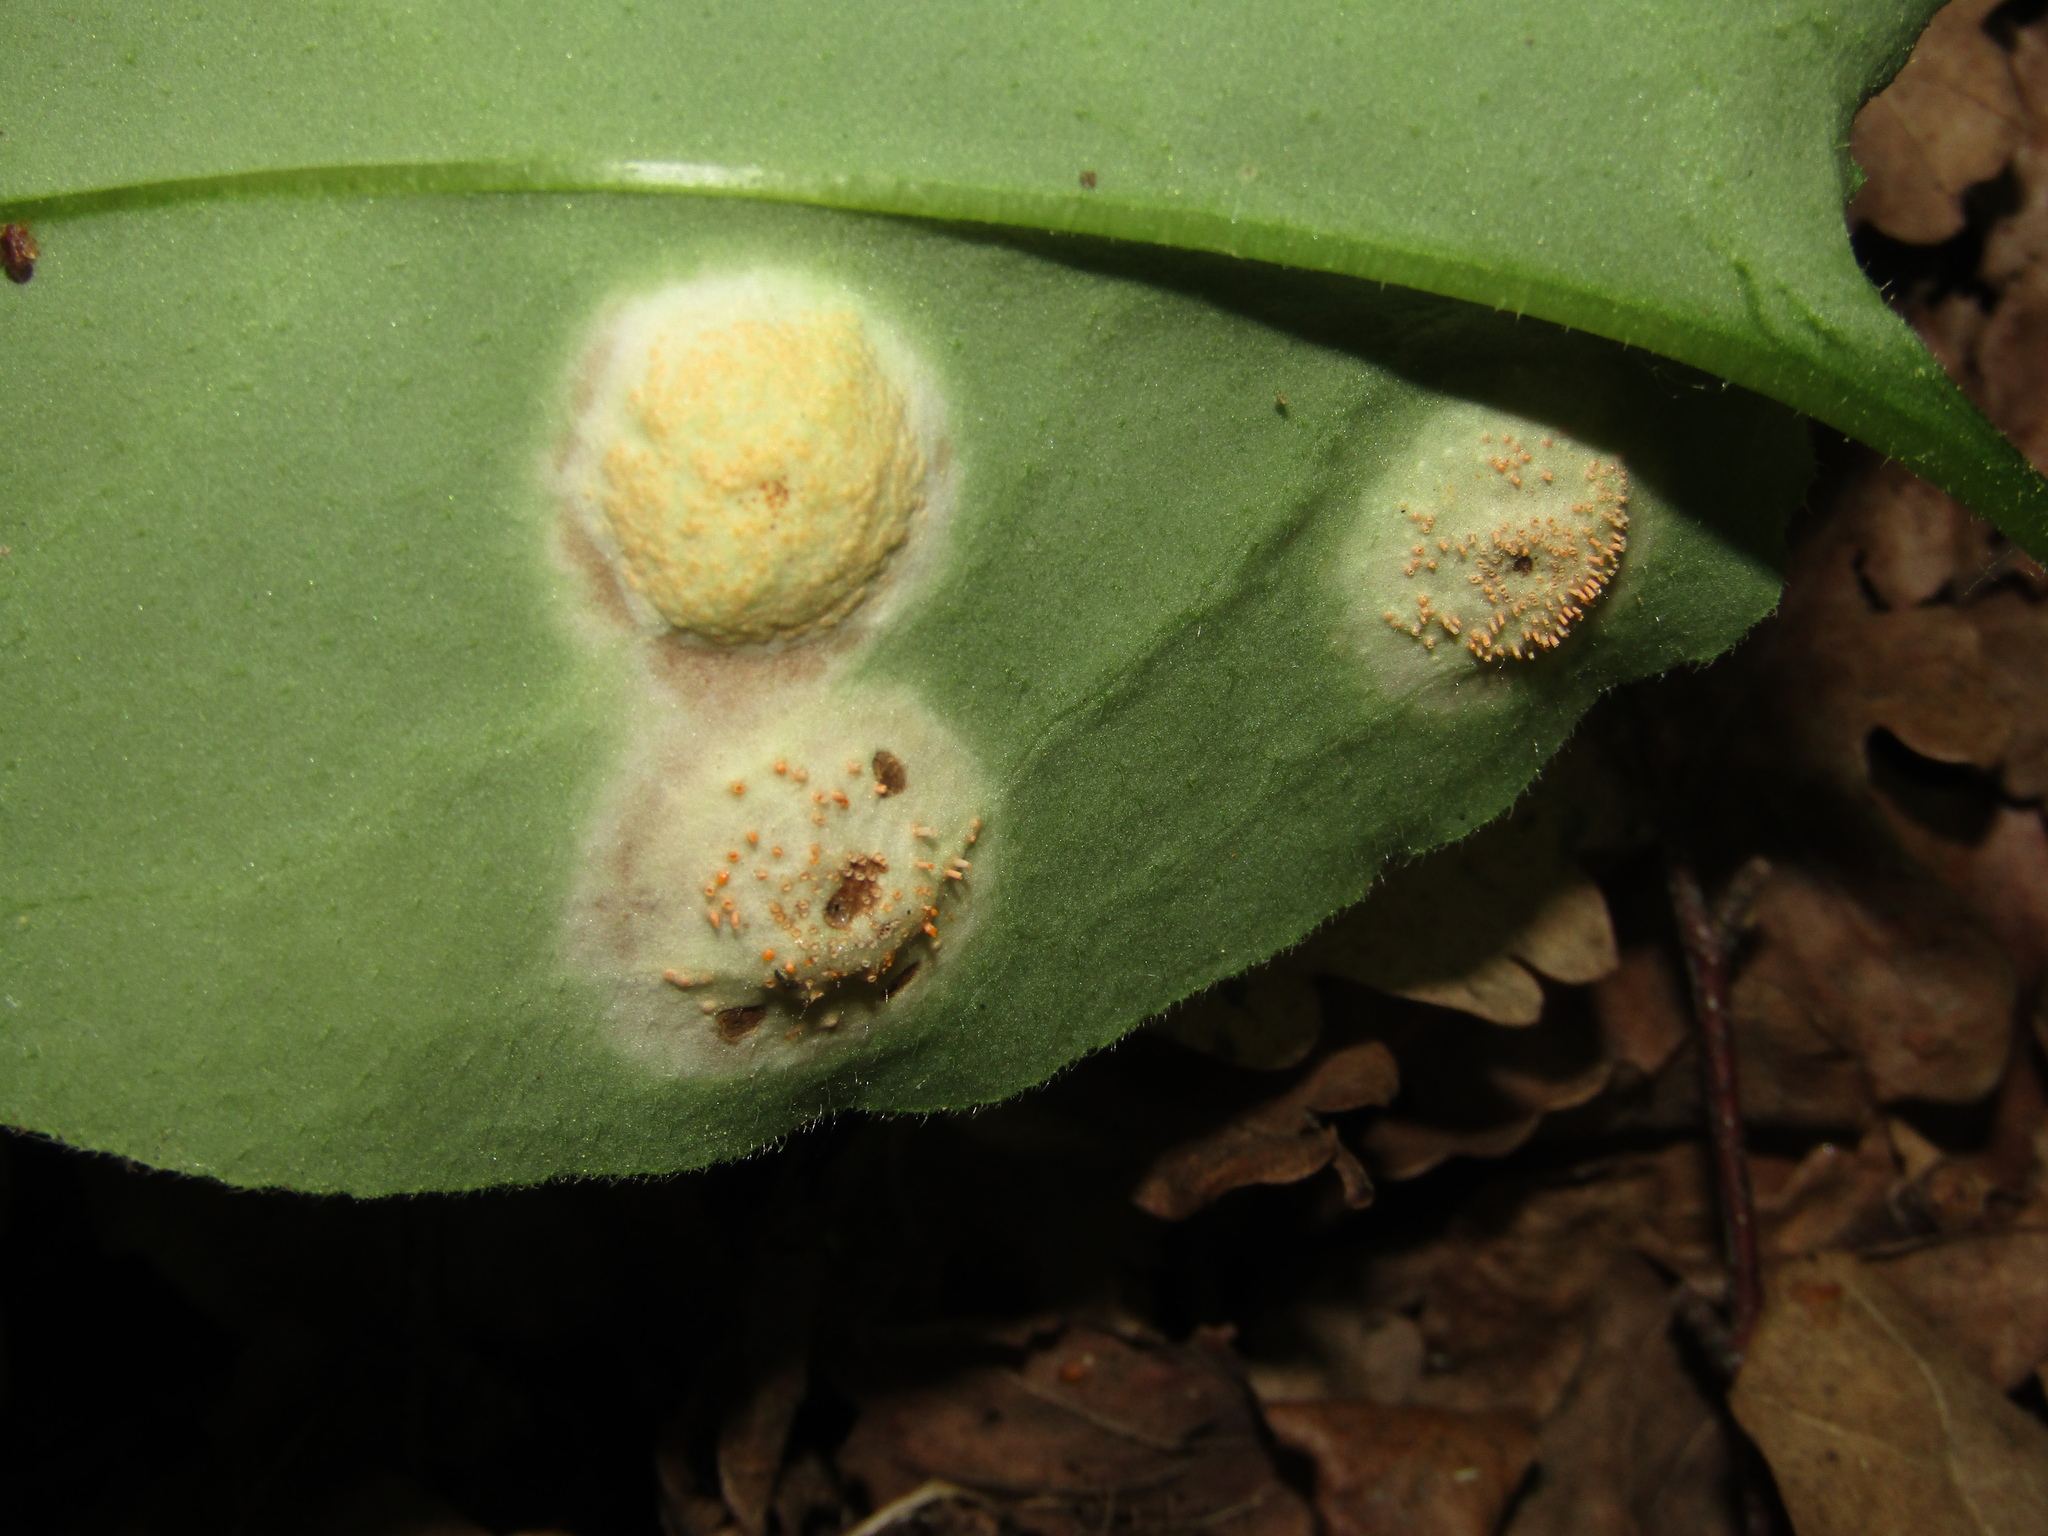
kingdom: Fungi
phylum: Basidiomycota
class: Pucciniomycetes
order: Pucciniales
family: Pucciniaceae
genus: Puccinia
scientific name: Puccinia bromina
